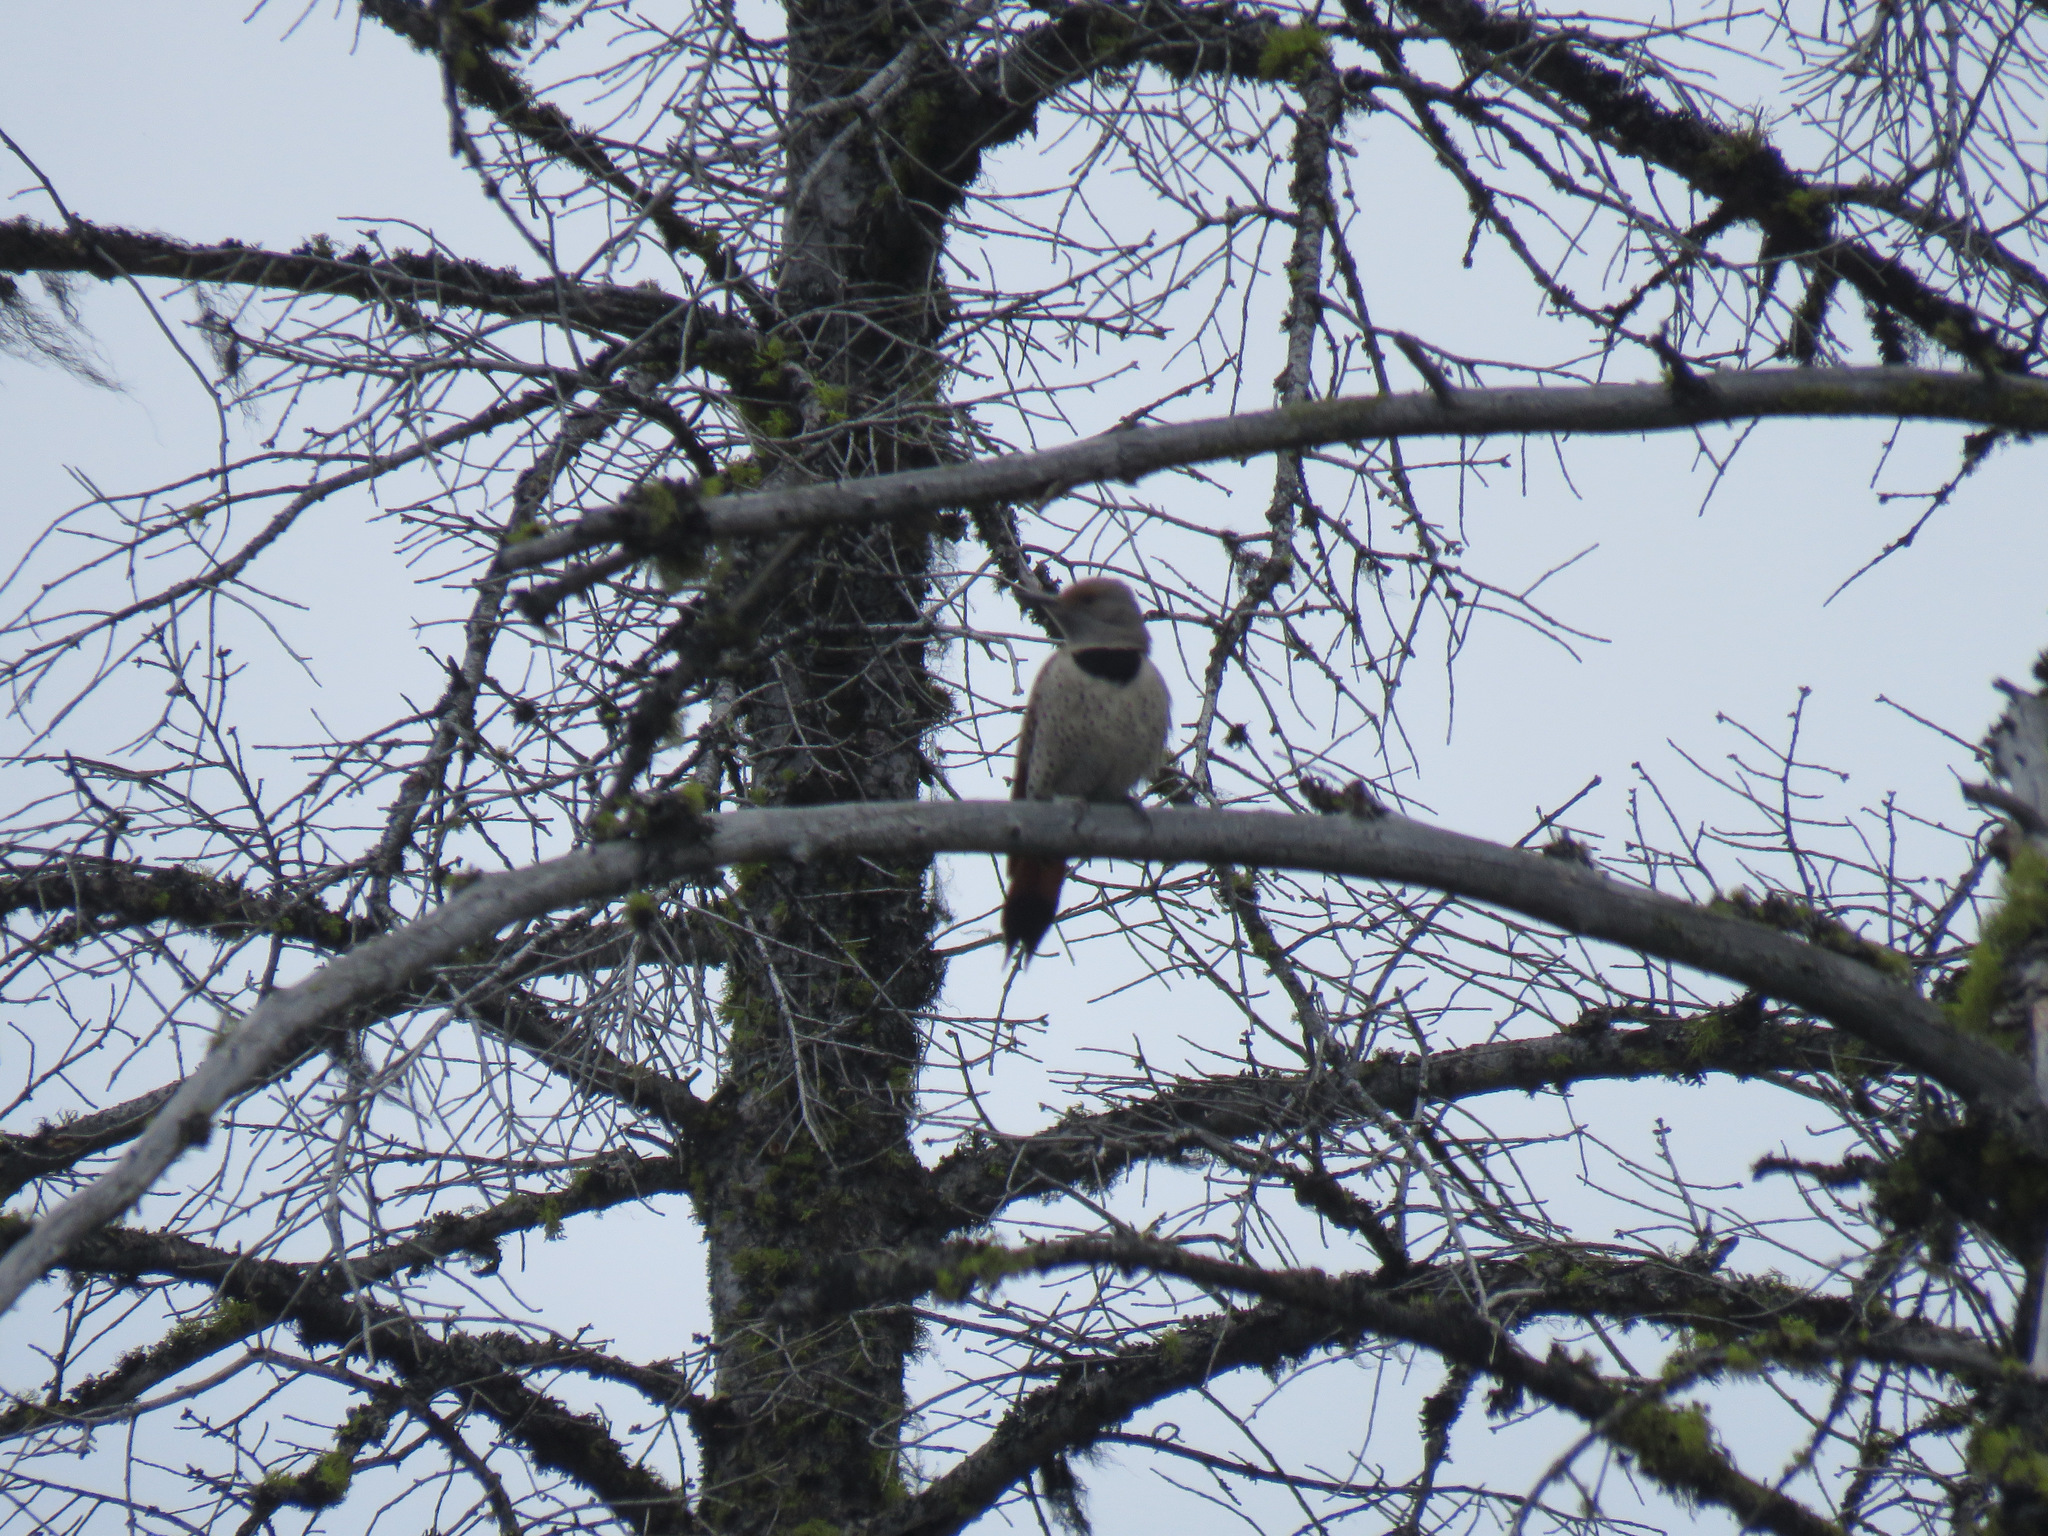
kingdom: Animalia
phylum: Chordata
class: Aves
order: Piciformes
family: Picidae
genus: Colaptes
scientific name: Colaptes auratus
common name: Northern flicker
